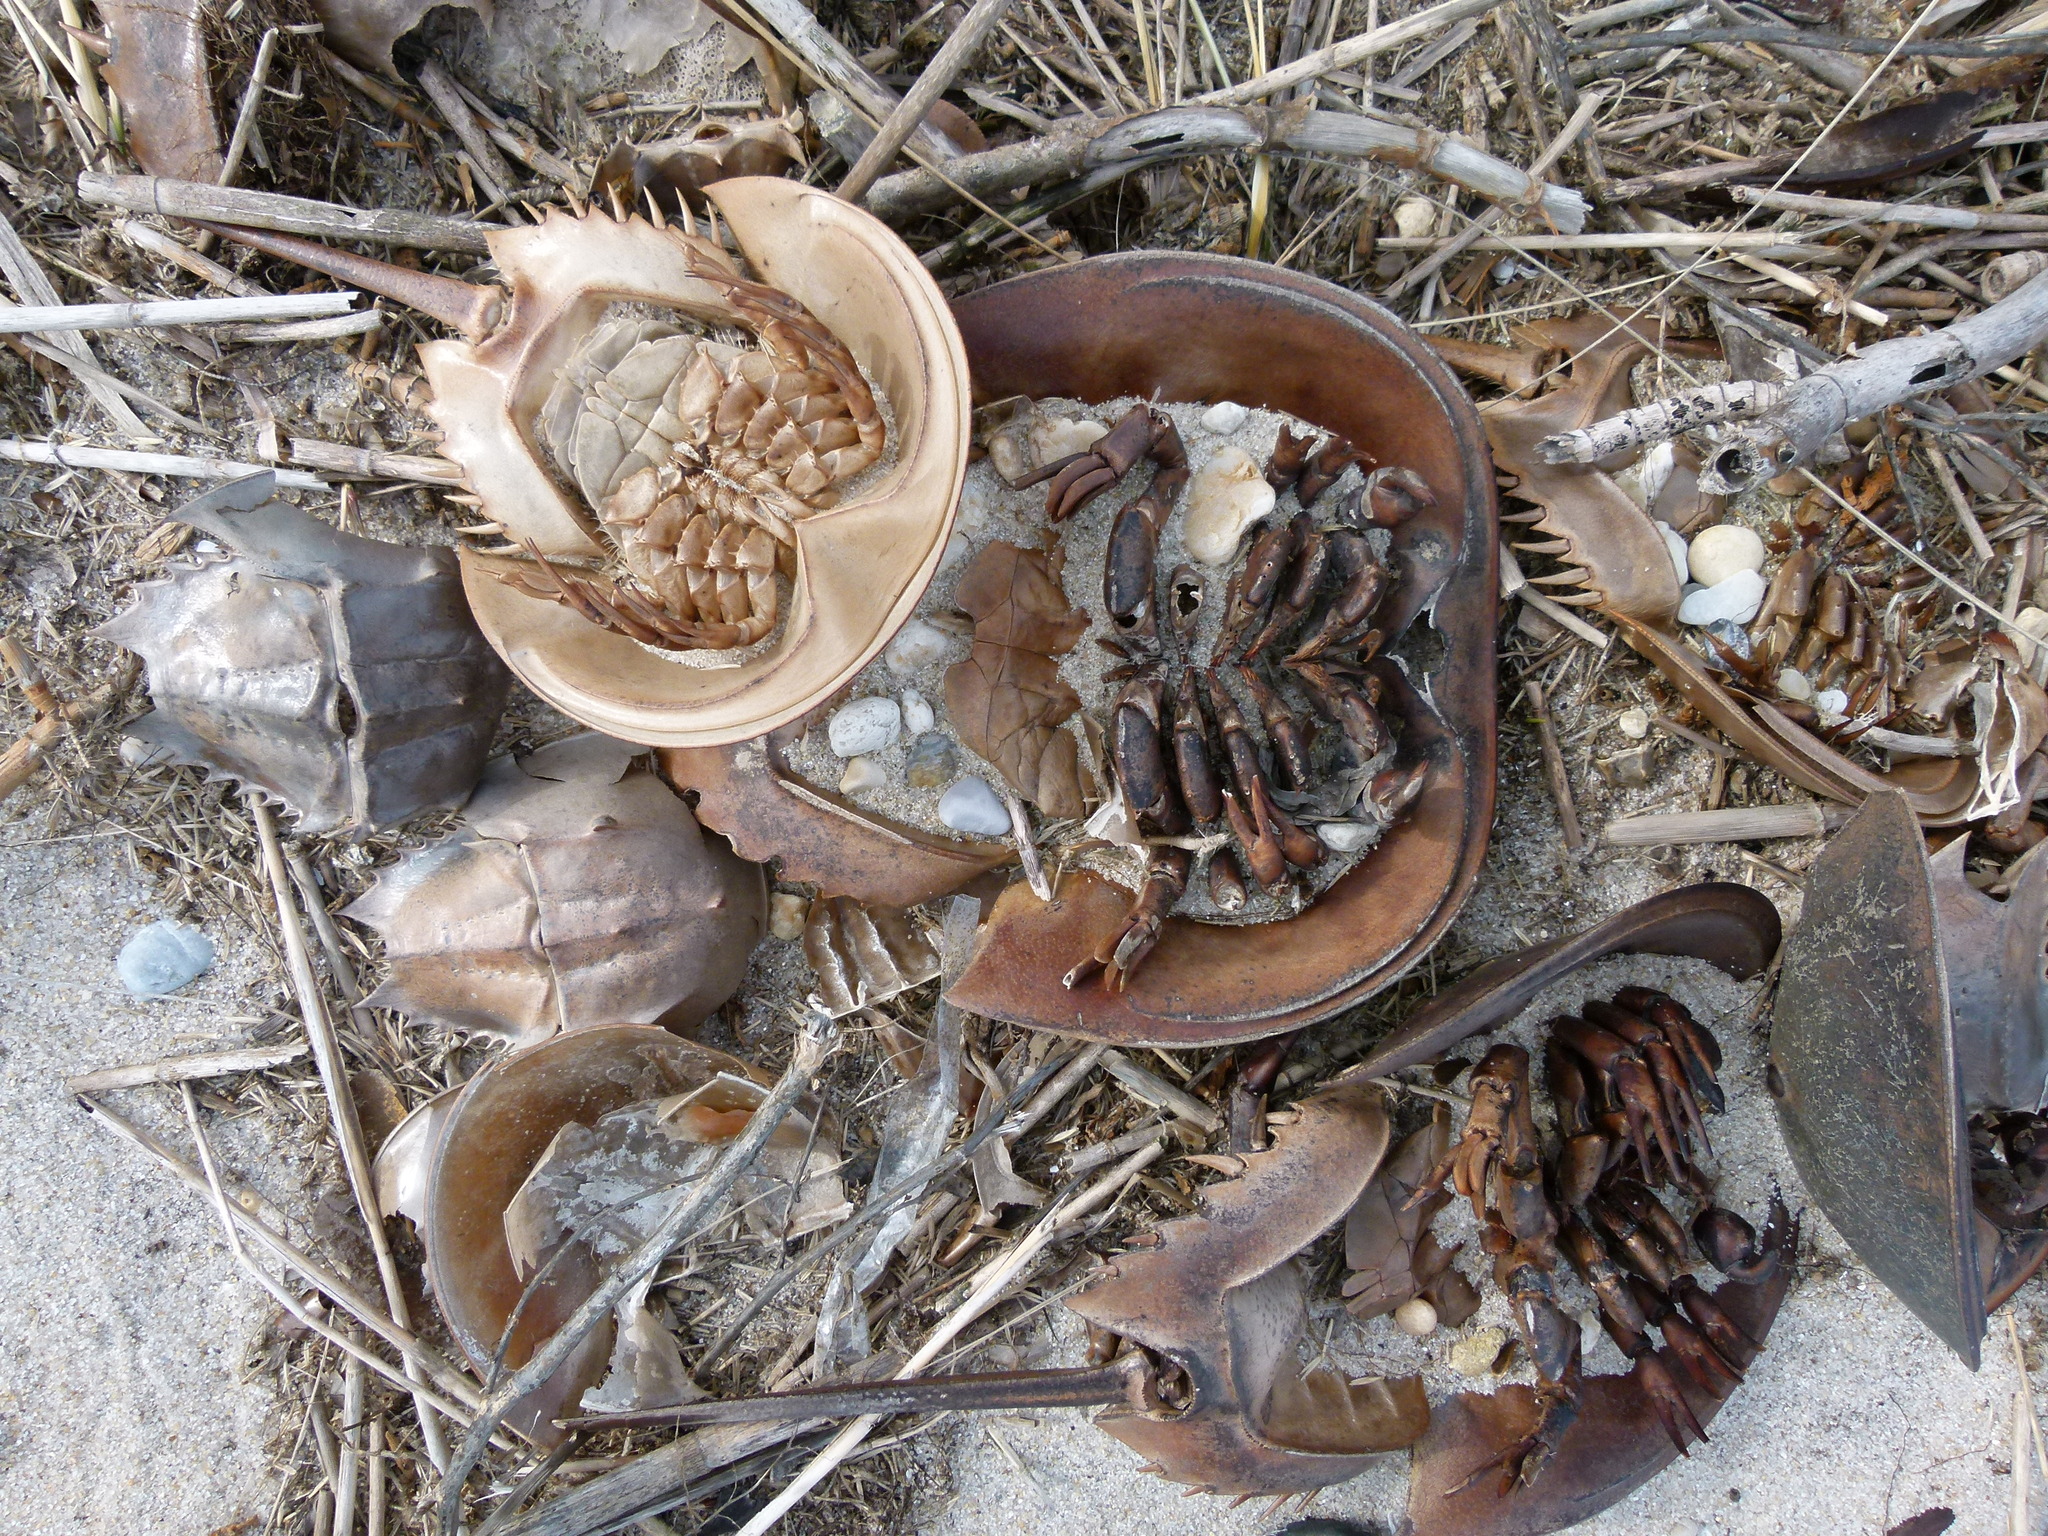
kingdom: Animalia
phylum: Arthropoda
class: Merostomata
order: Xiphosurida
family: Limulidae
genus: Limulus
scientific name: Limulus polyphemus
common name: Horseshoe crab
